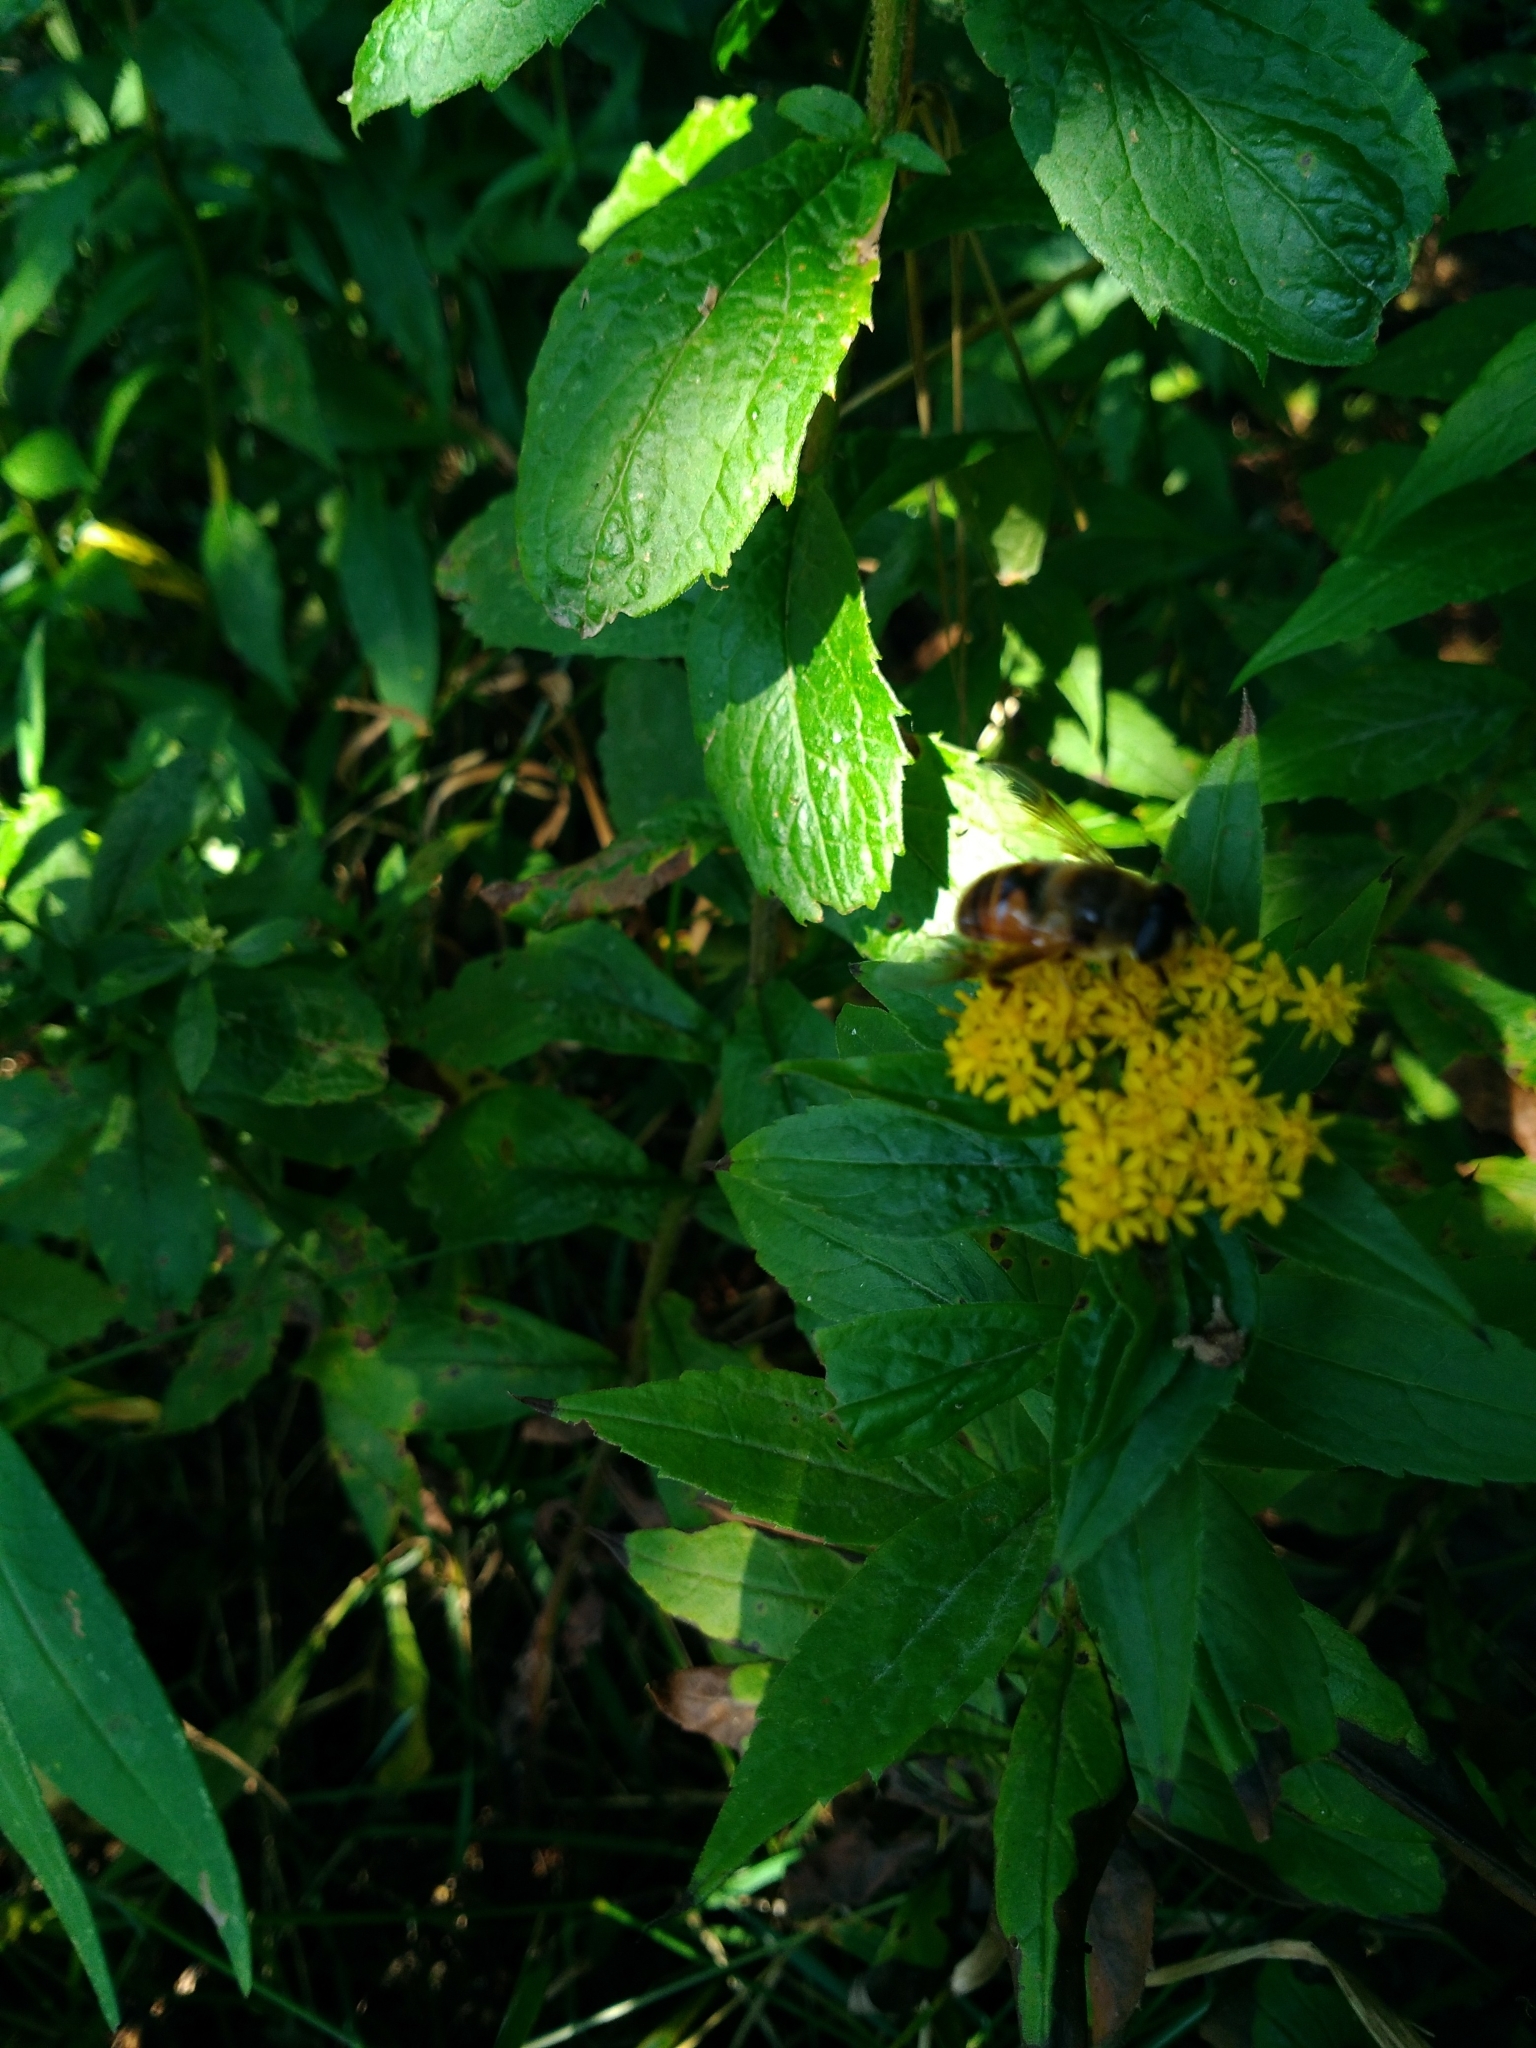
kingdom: Animalia
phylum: Arthropoda
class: Insecta
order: Diptera
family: Syrphidae
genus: Eristalis
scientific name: Eristalis tenax
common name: Drone fly
